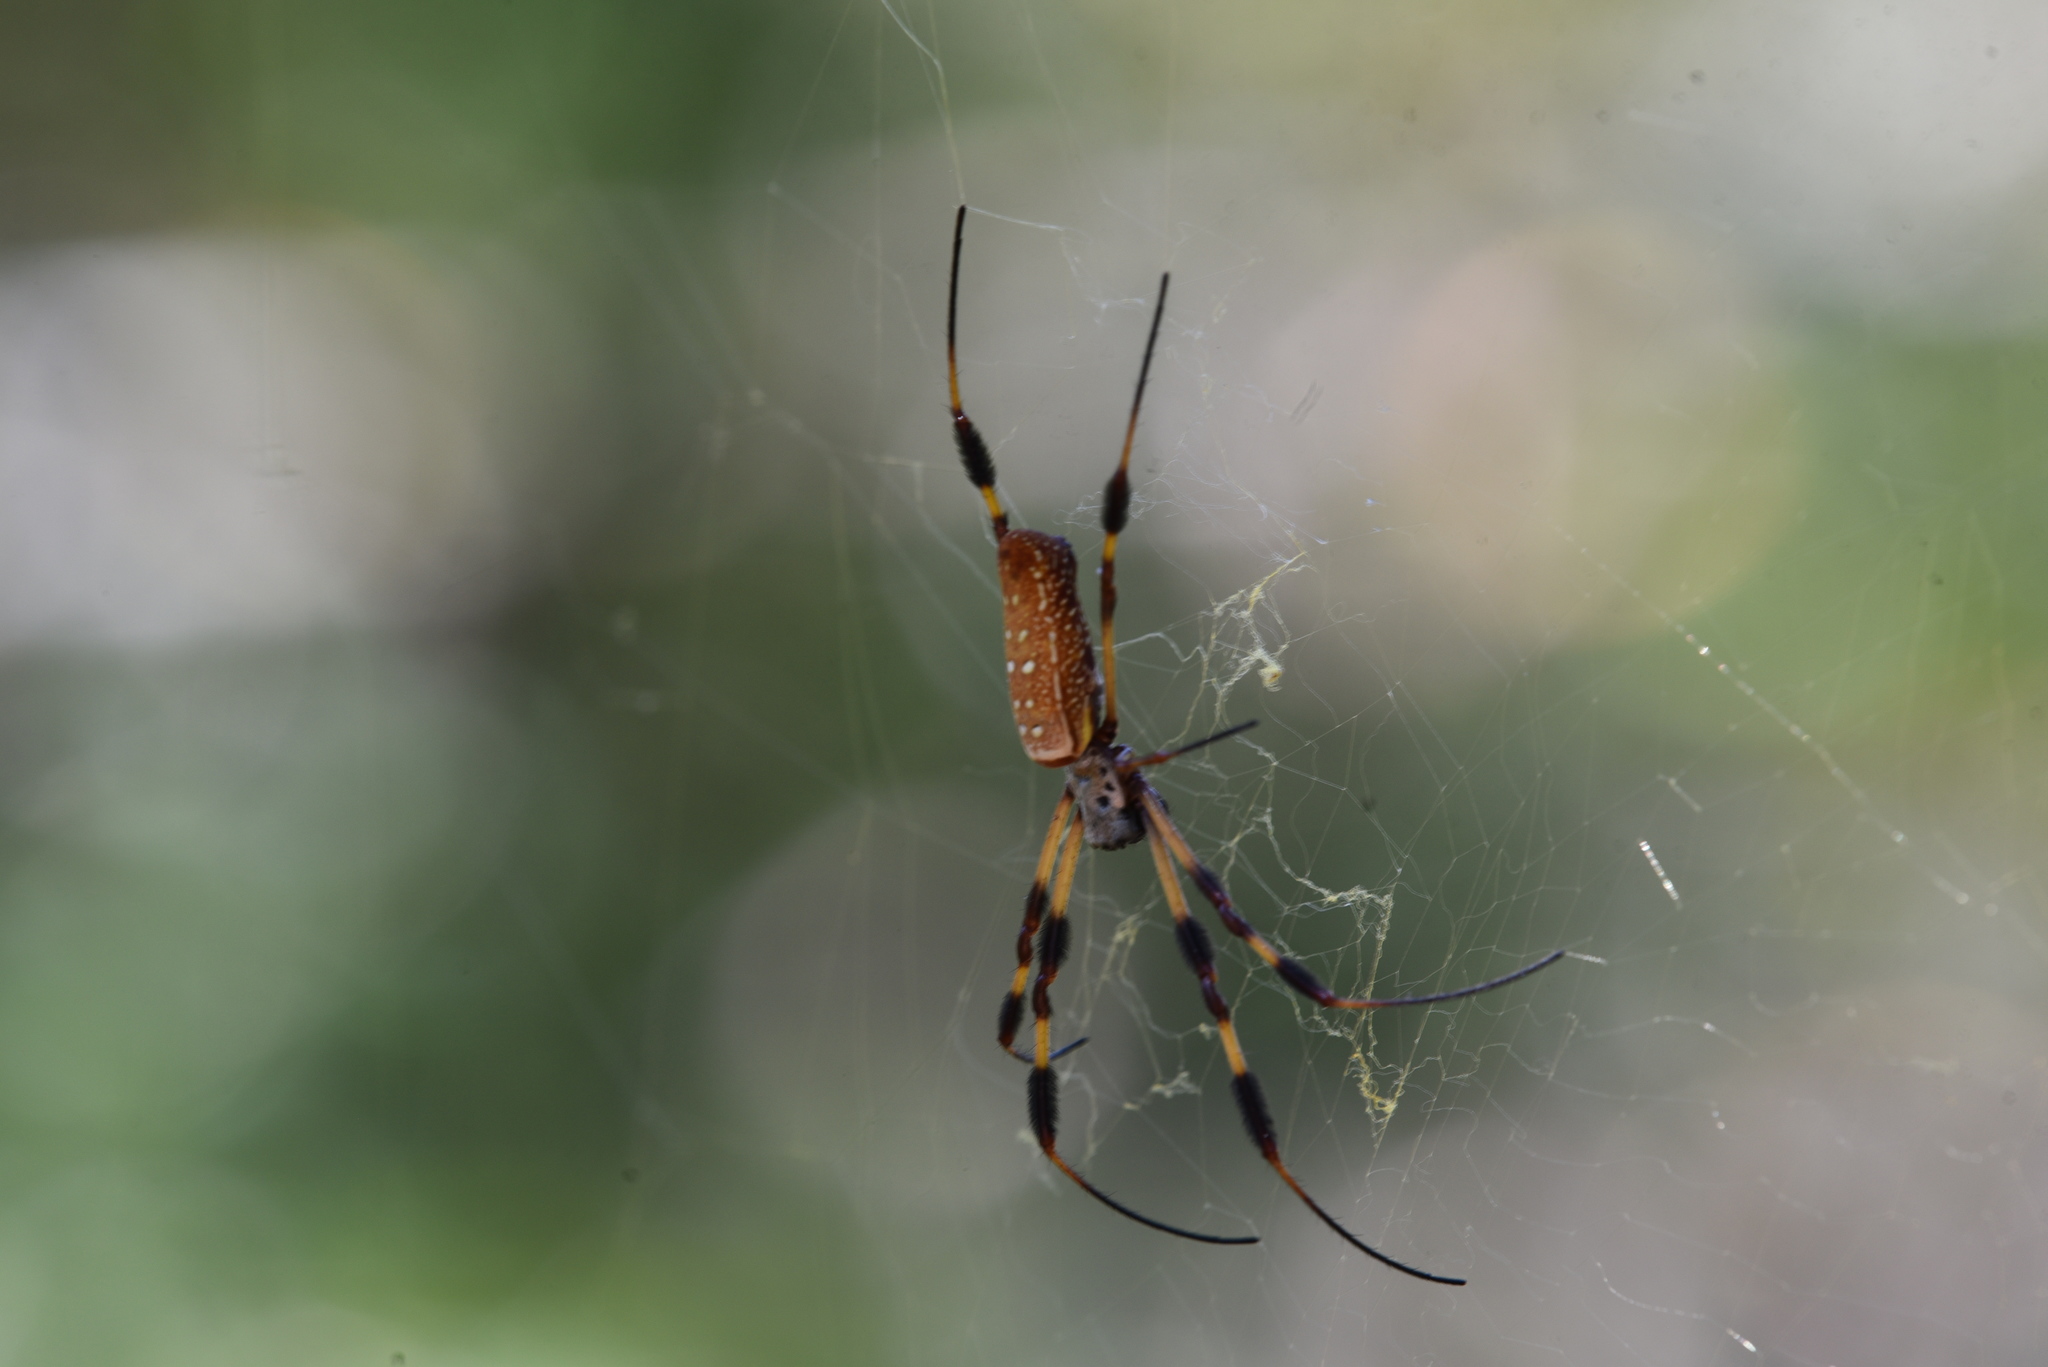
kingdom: Animalia
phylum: Arthropoda
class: Arachnida
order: Araneae
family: Araneidae
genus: Trichonephila
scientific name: Trichonephila clavipes
